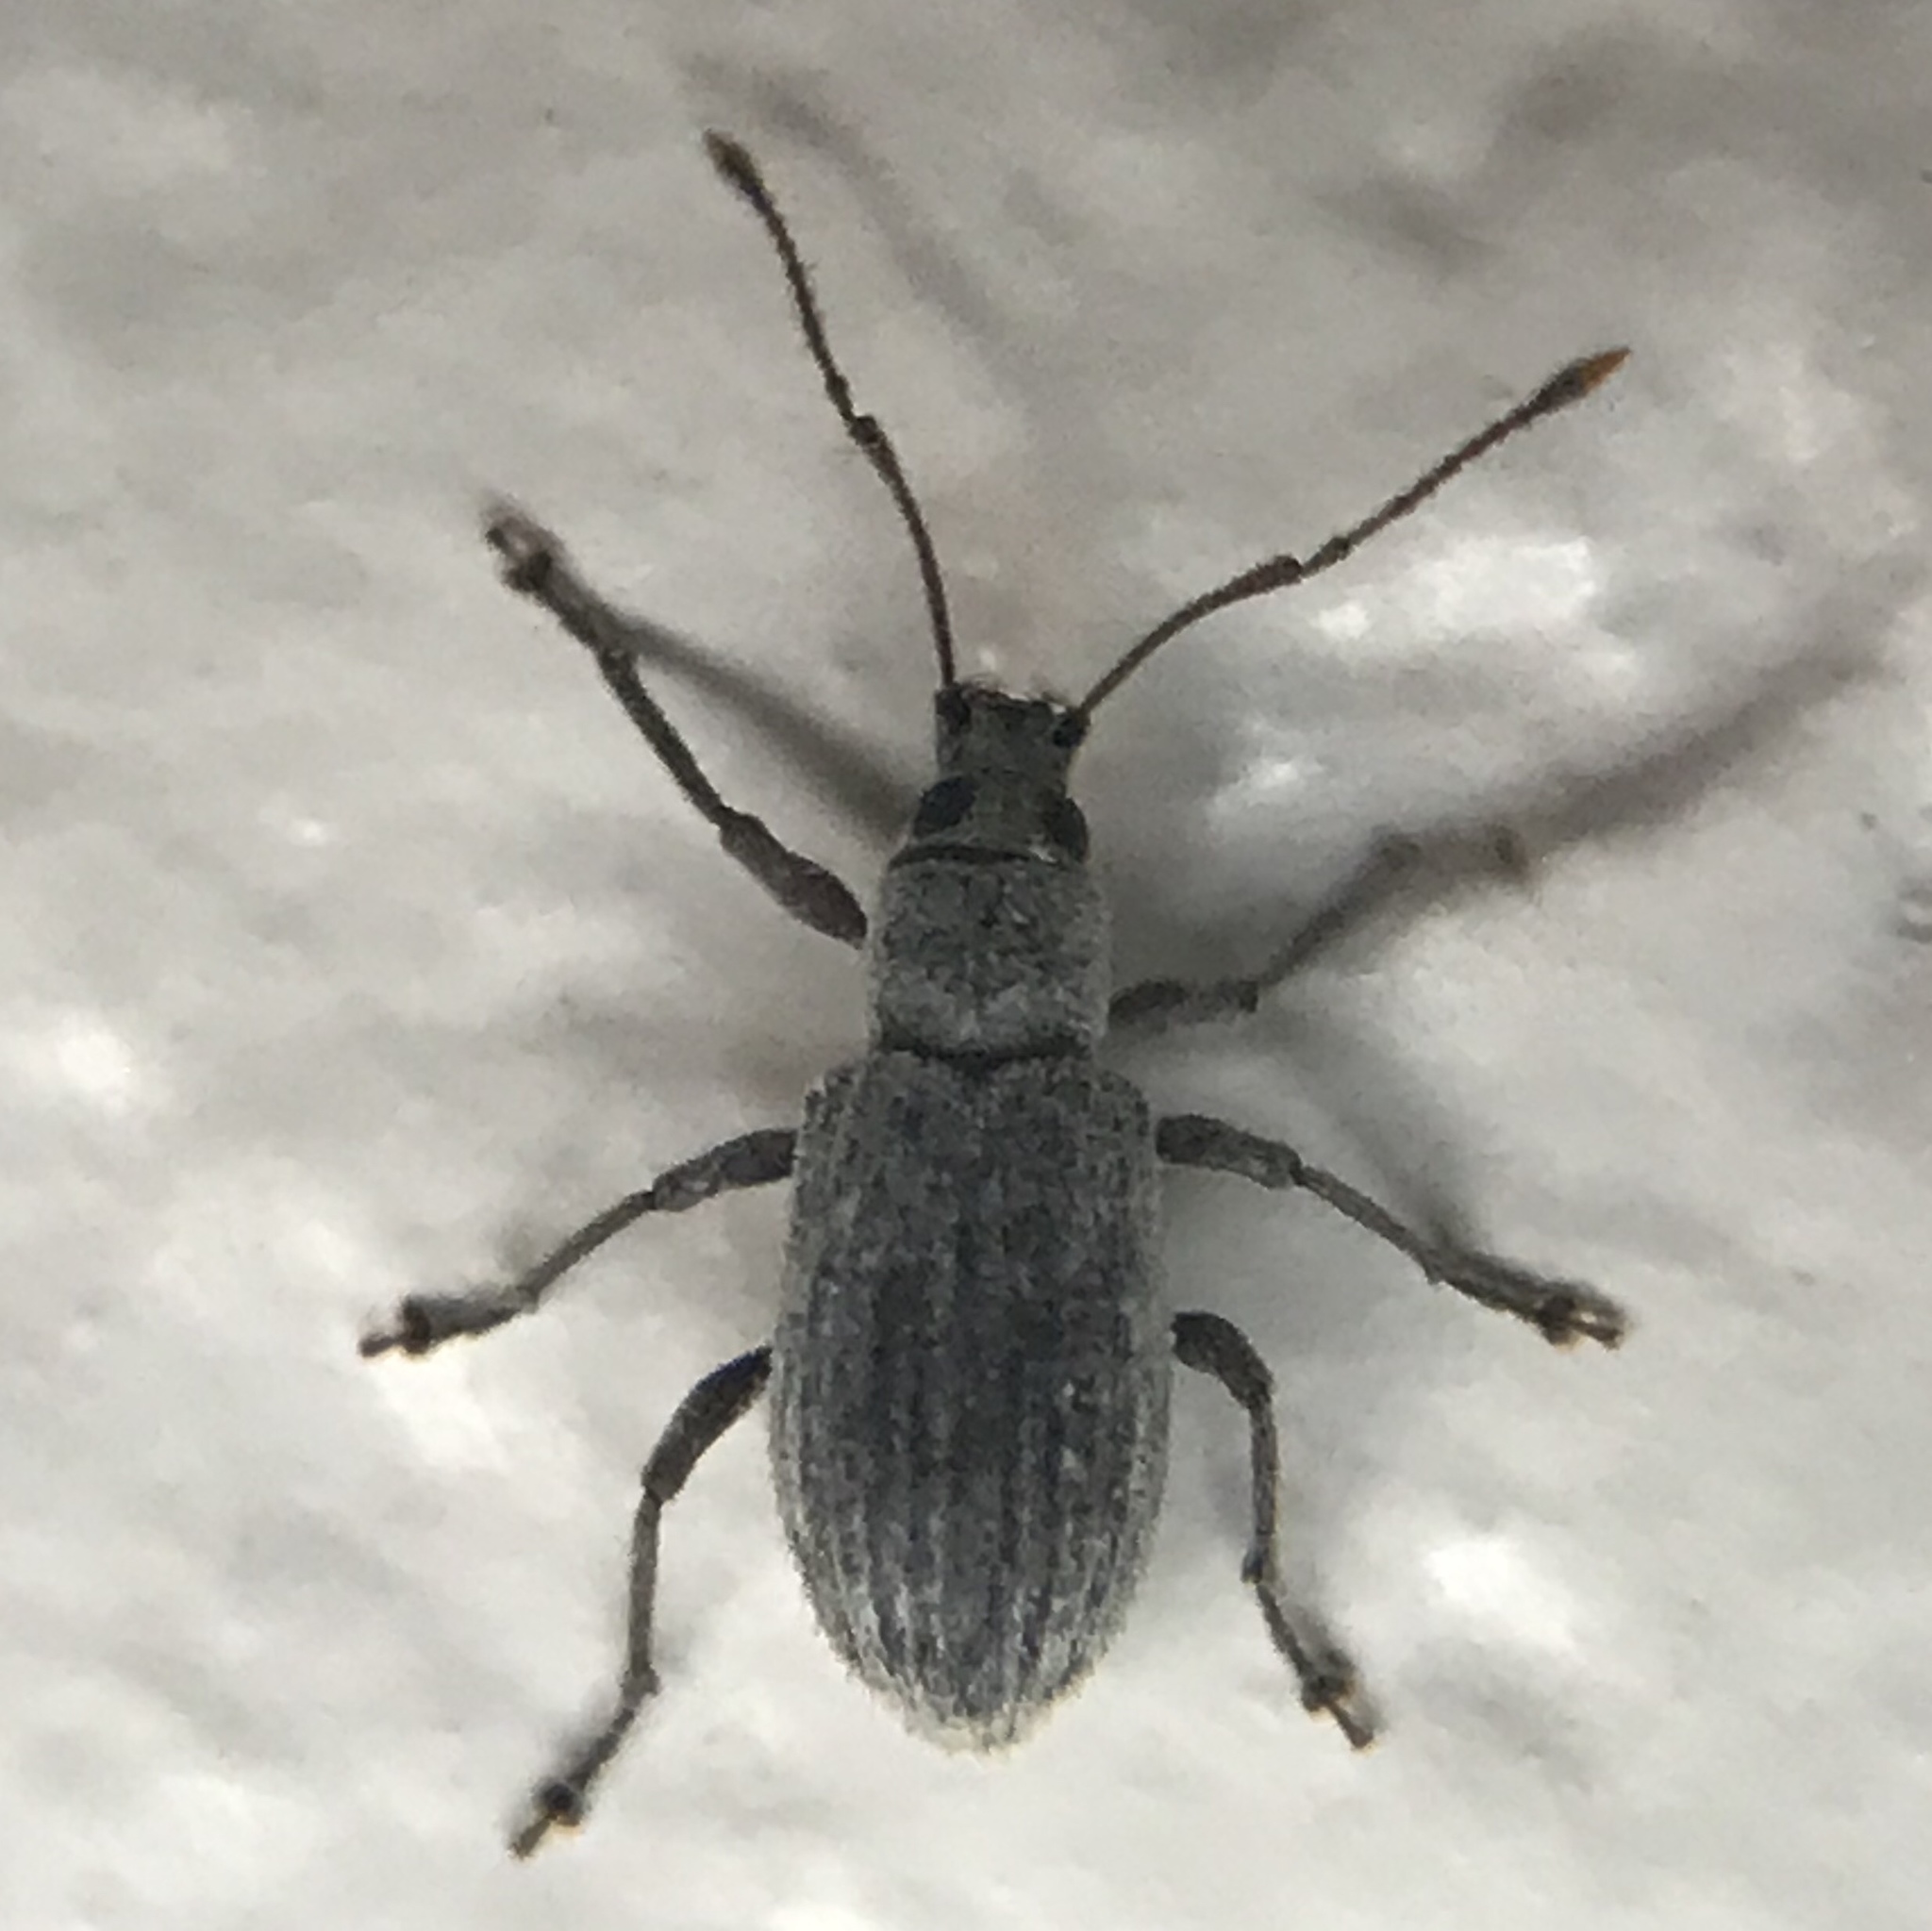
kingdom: Animalia
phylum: Arthropoda
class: Insecta
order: Coleoptera
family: Curculionidae
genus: Cyrtepistomus
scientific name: Cyrtepistomus castaneus
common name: Weevil
